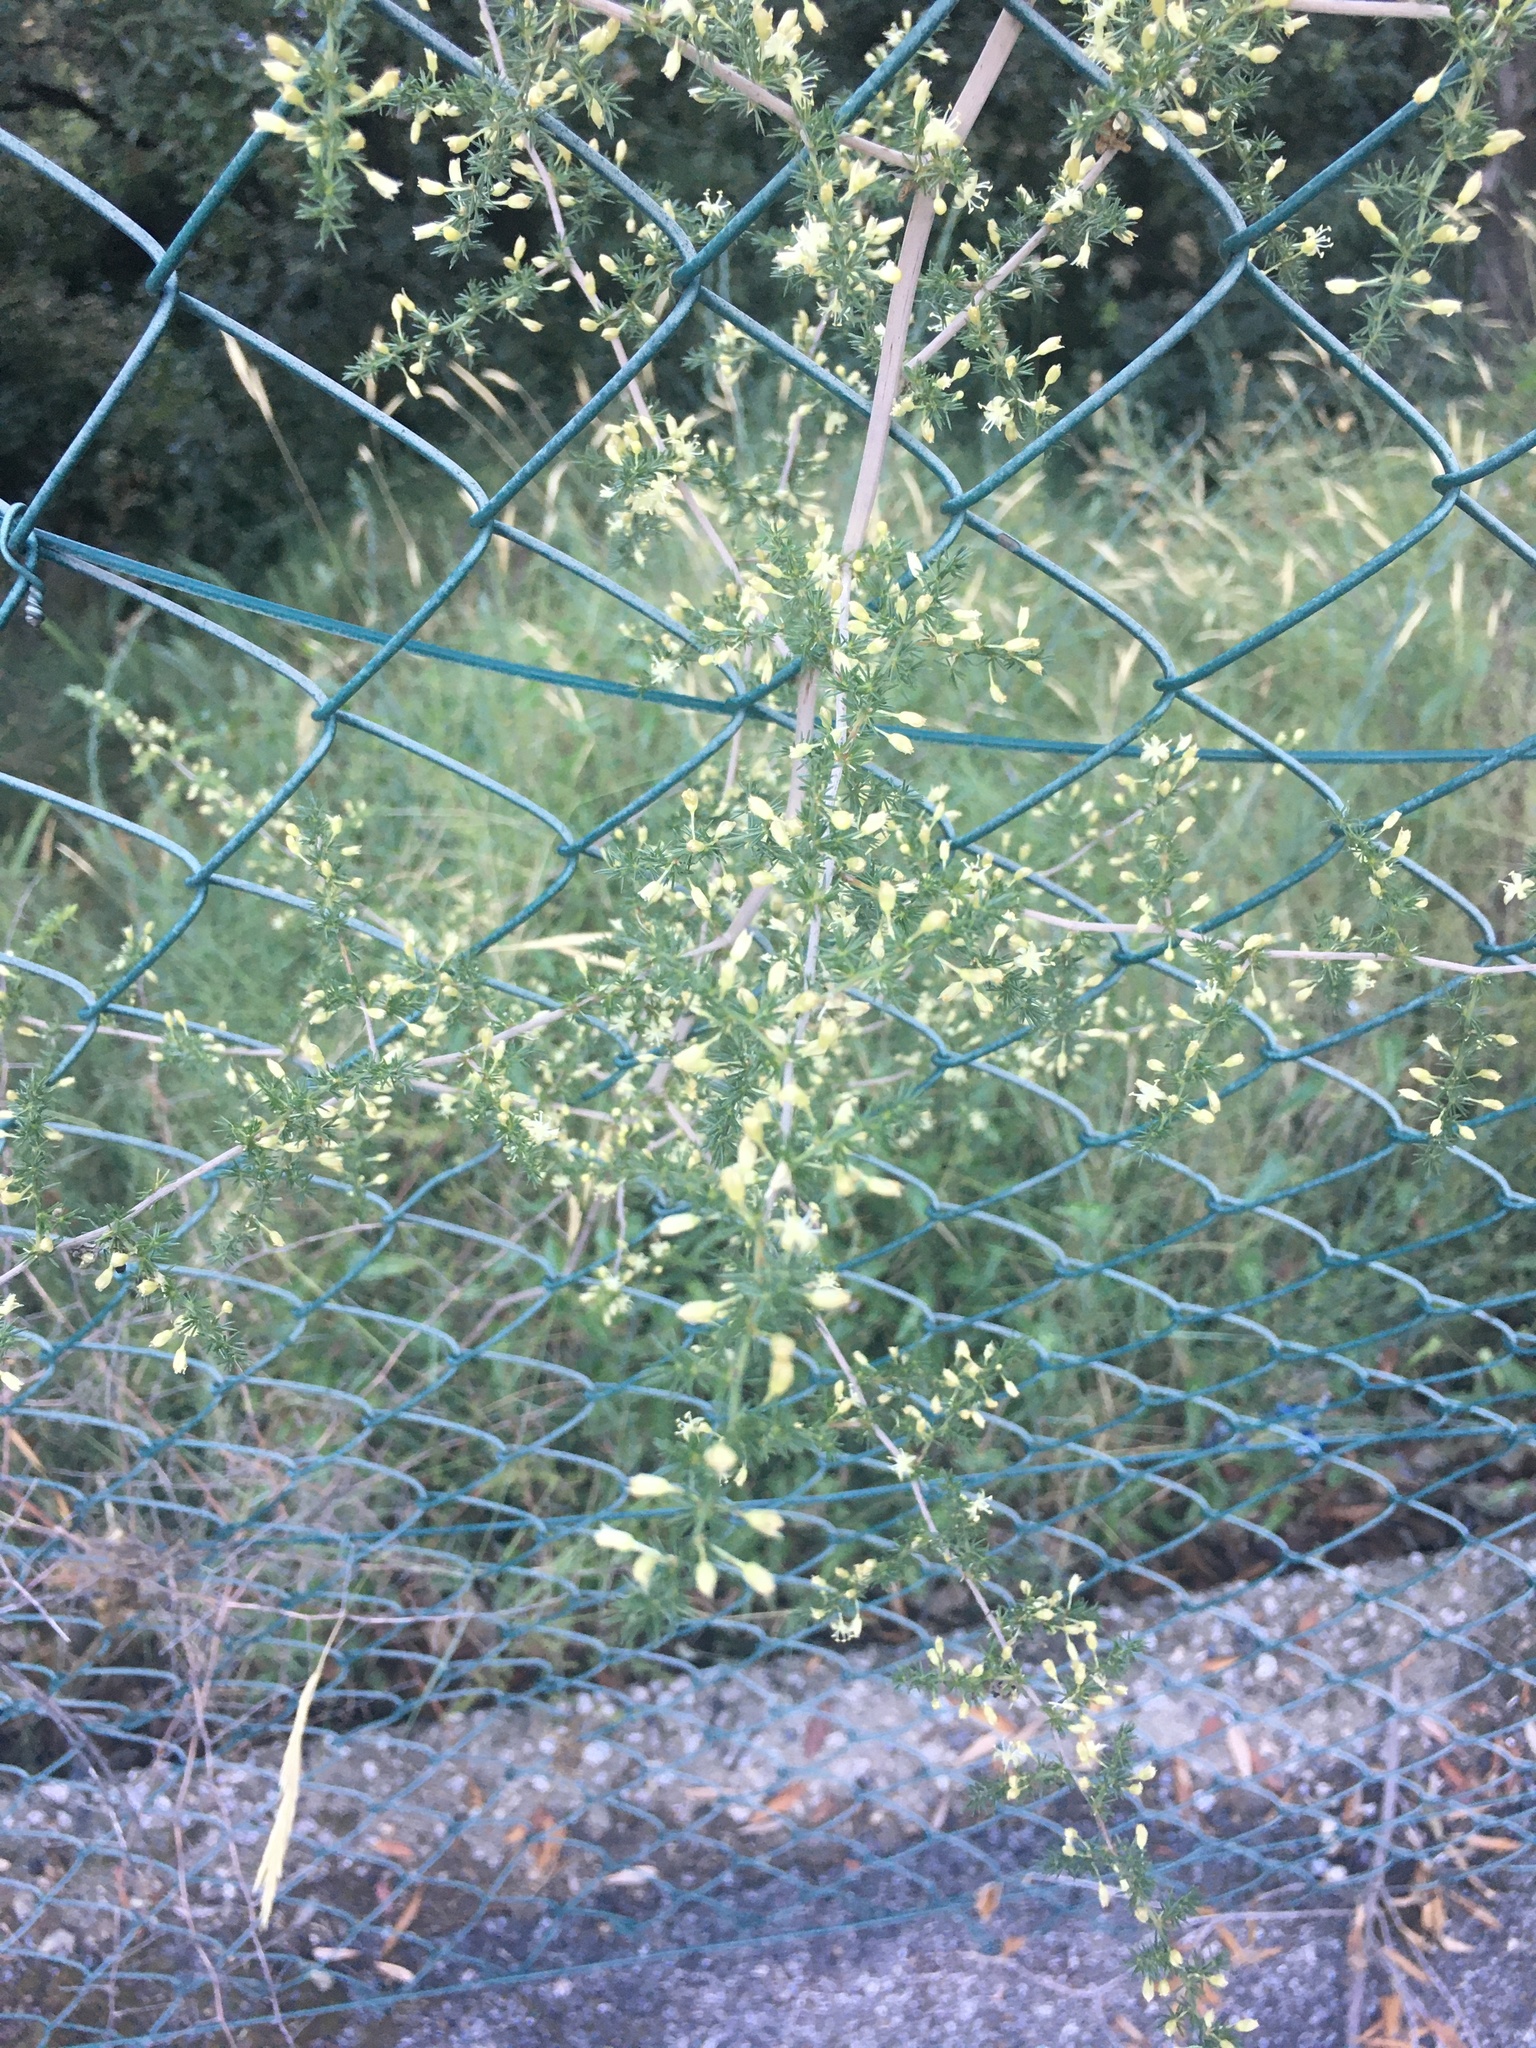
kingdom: Plantae
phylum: Tracheophyta
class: Liliopsida
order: Asparagales
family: Asparagaceae
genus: Asparagus
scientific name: Asparagus acutifolius
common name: Wild asparagus
